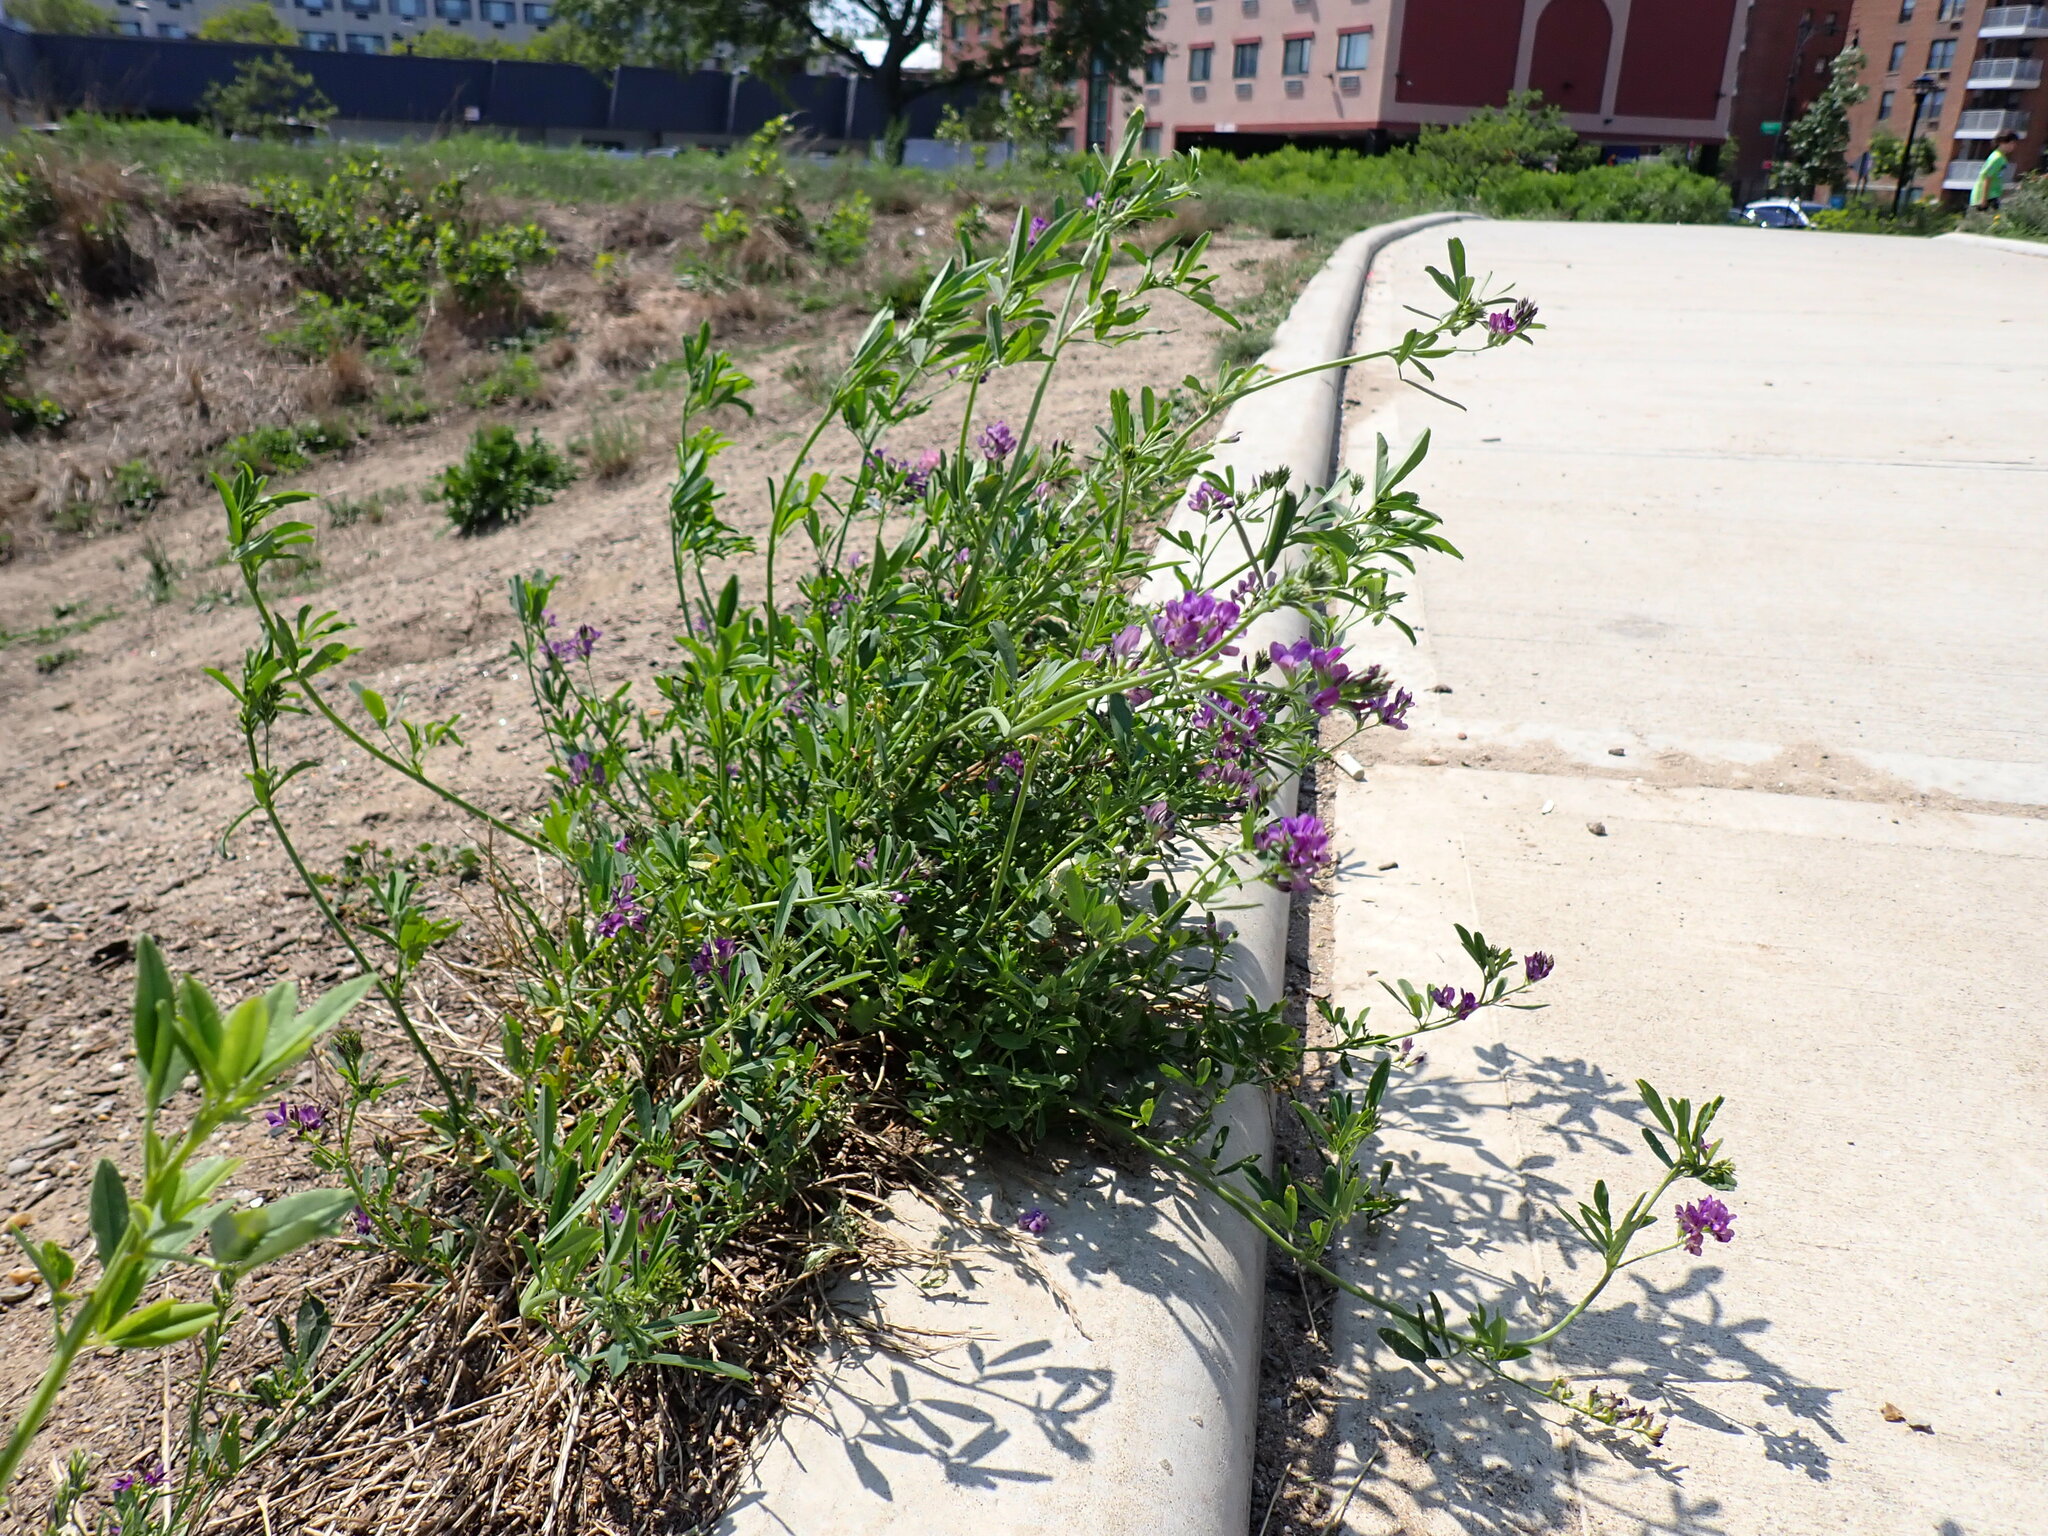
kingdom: Plantae
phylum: Tracheophyta
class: Magnoliopsida
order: Fabales
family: Fabaceae
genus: Medicago
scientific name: Medicago sativa
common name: Alfalfa
